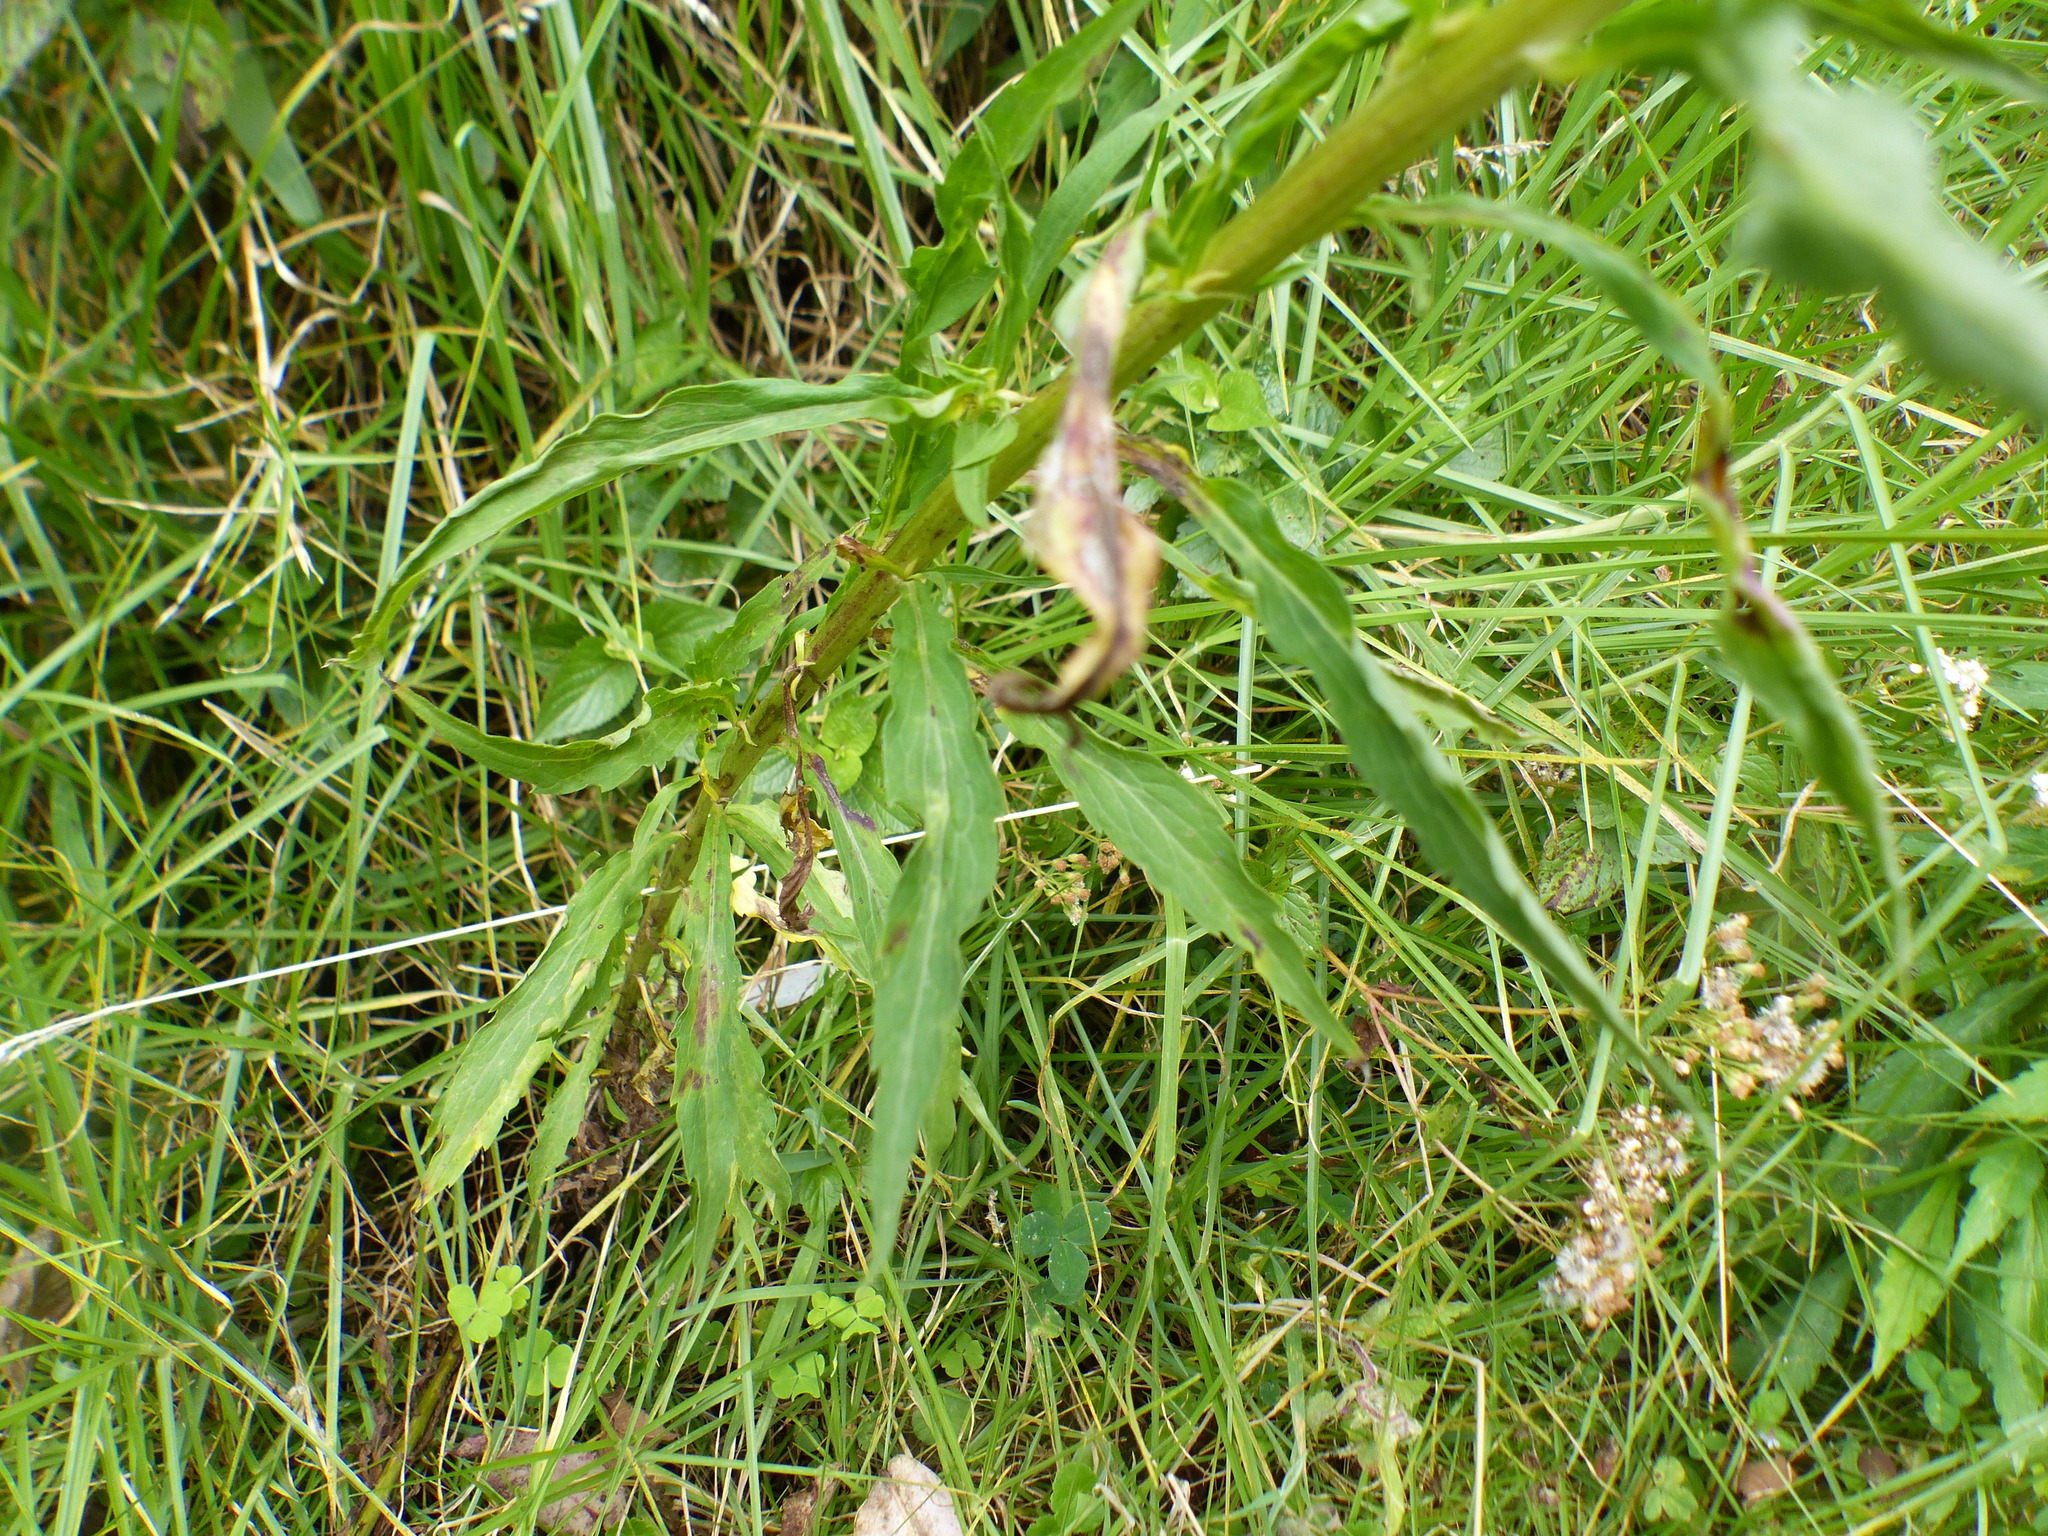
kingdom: Plantae
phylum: Tracheophyta
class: Magnoliopsida
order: Asterales
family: Asteraceae
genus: Erigeron
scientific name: Erigeron canadensis
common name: Canadian fleabane
